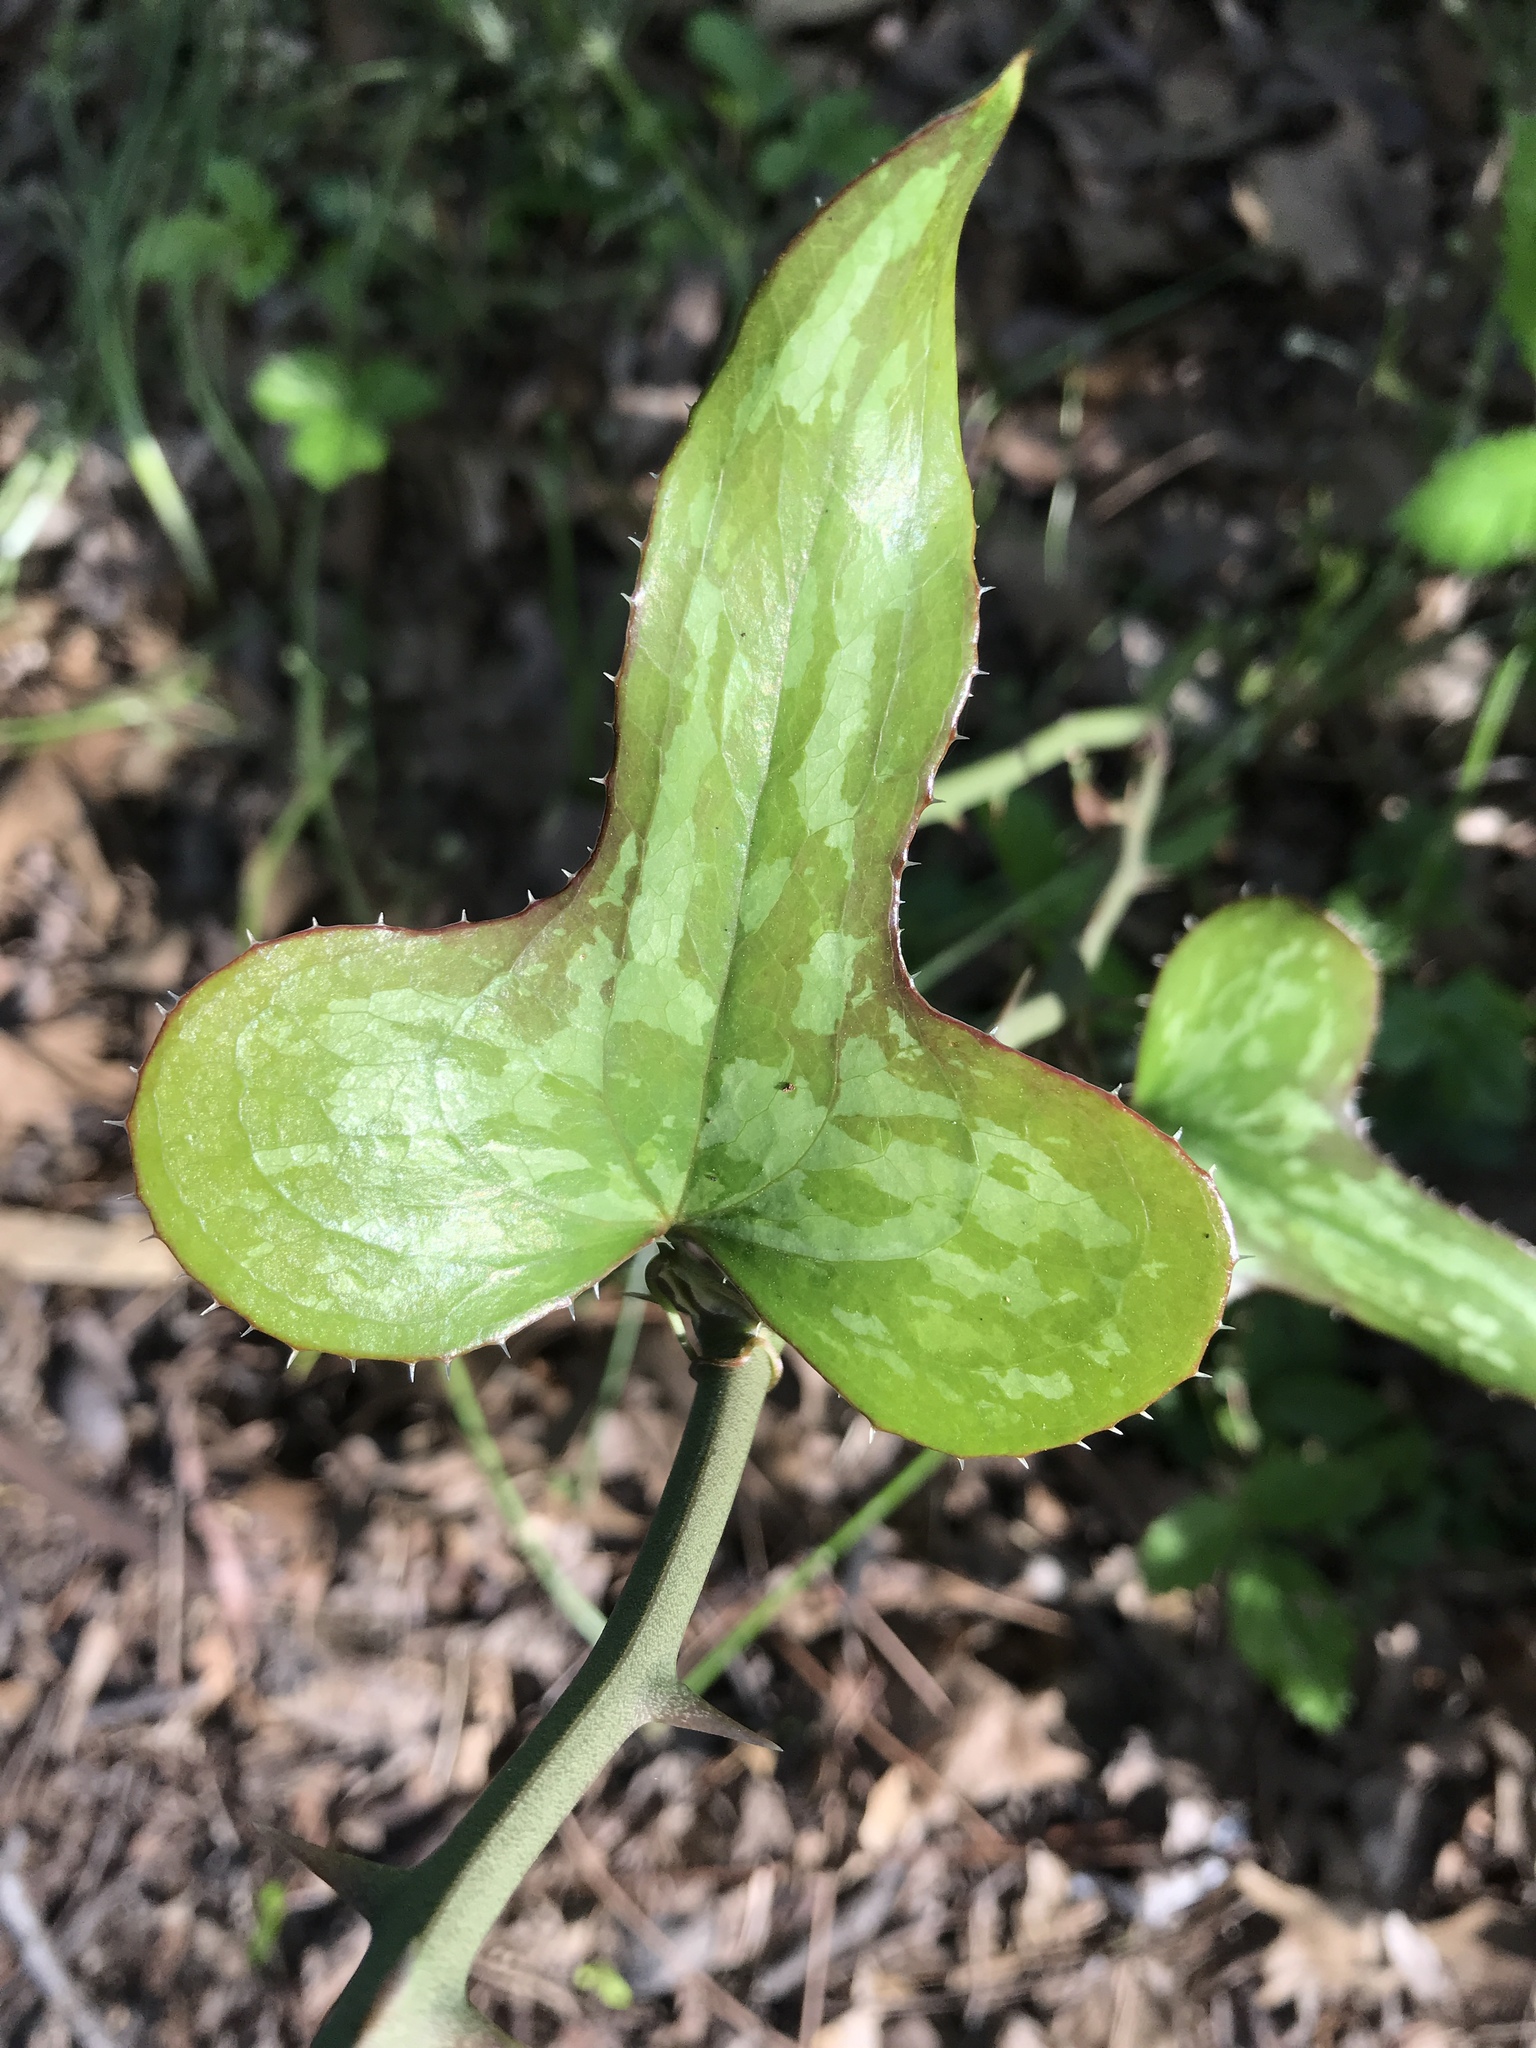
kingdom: Plantae
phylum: Tracheophyta
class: Liliopsida
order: Liliales
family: Smilacaceae
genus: Smilax
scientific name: Smilax bona-nox
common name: Catbrier
